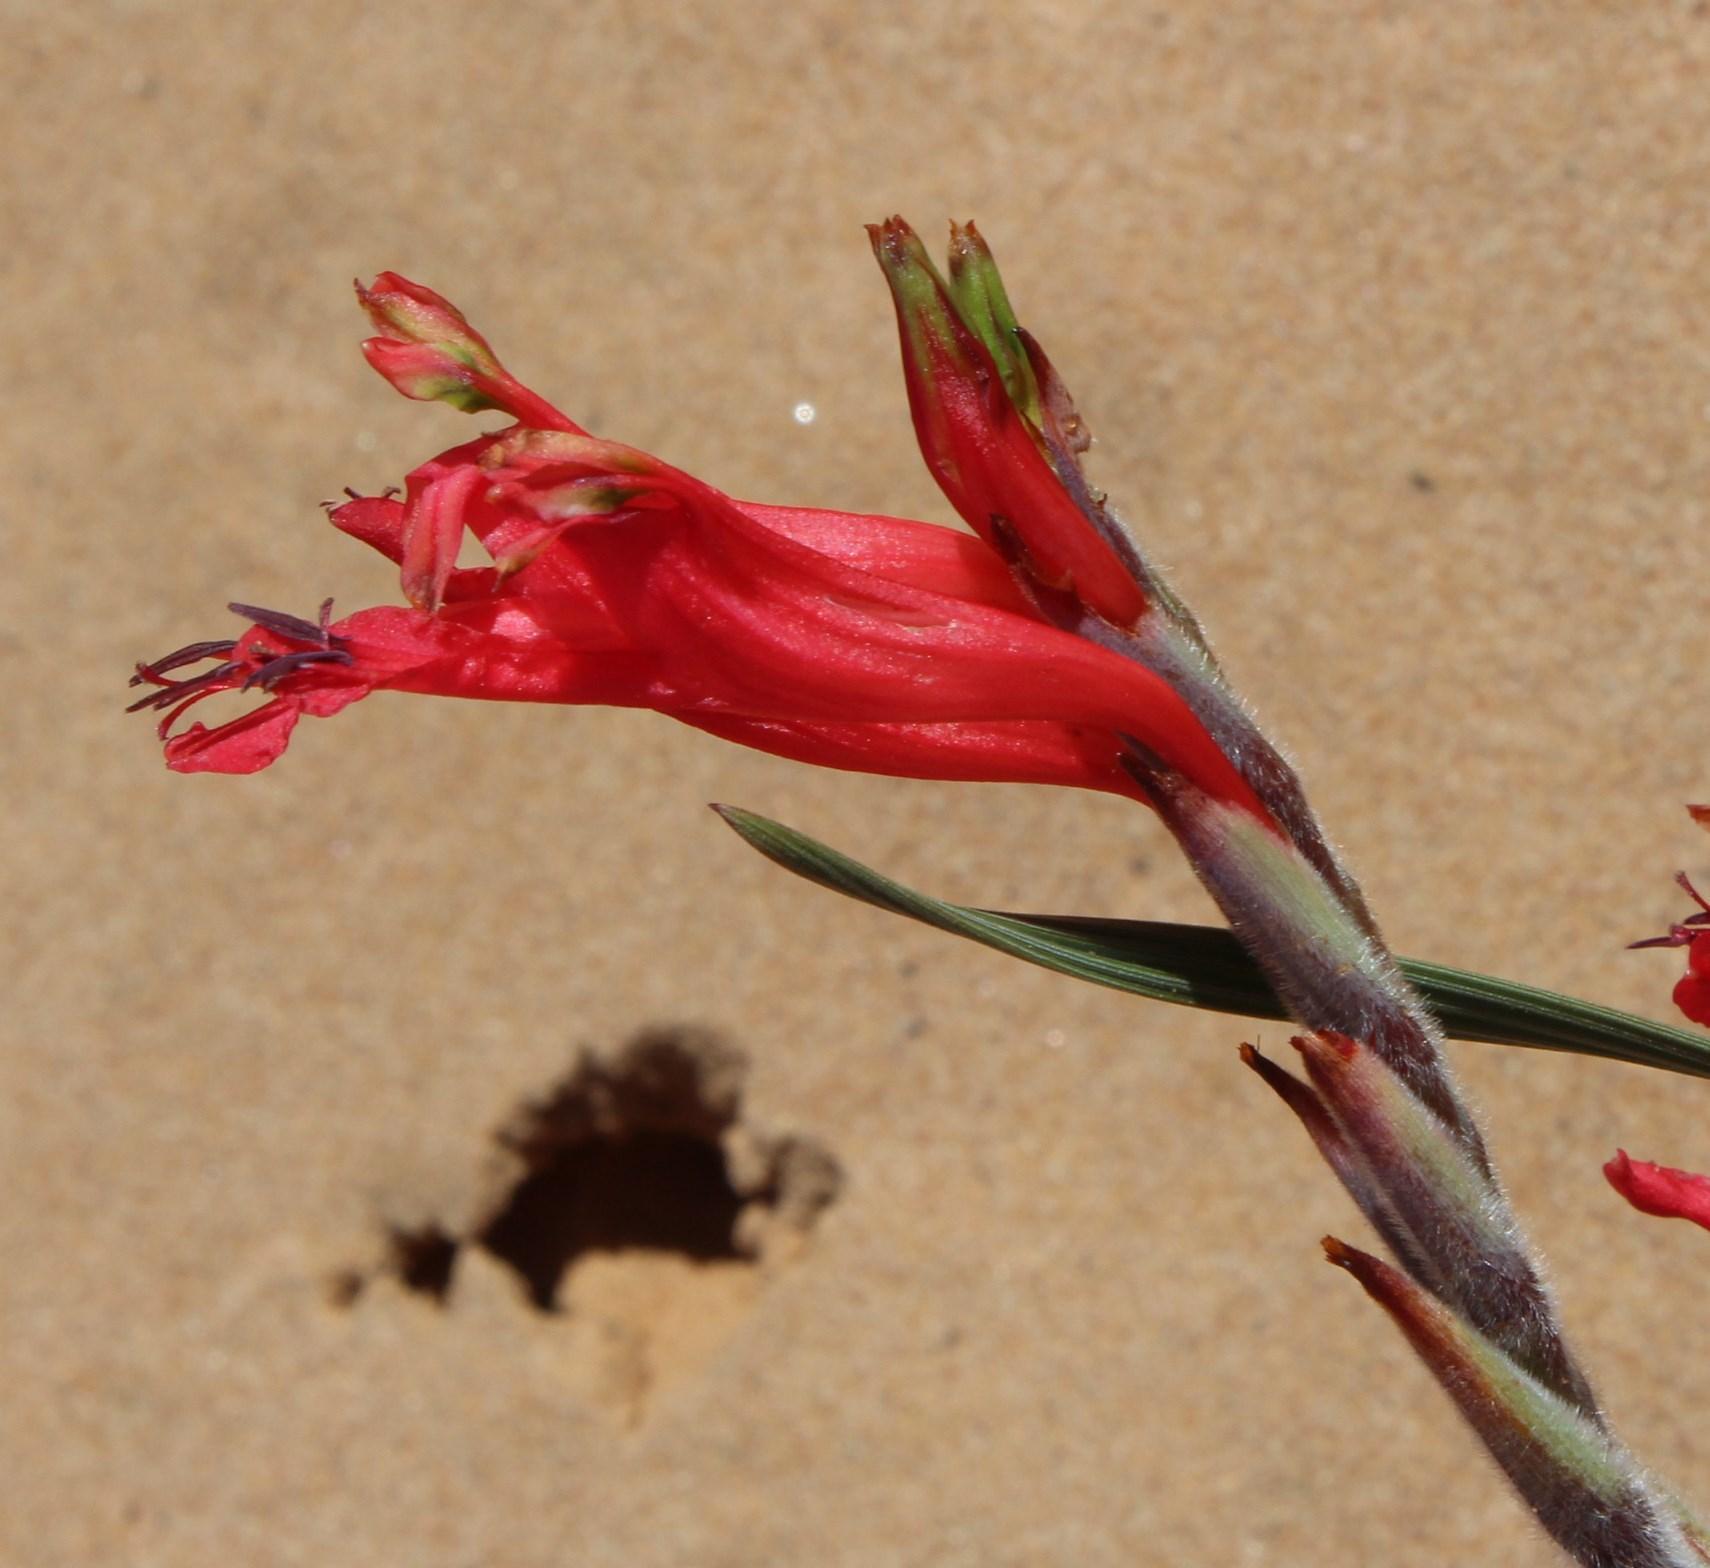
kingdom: Plantae
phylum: Tracheophyta
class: Liliopsida
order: Asparagales
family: Iridaceae
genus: Babiana
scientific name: Babiana hirsuta
